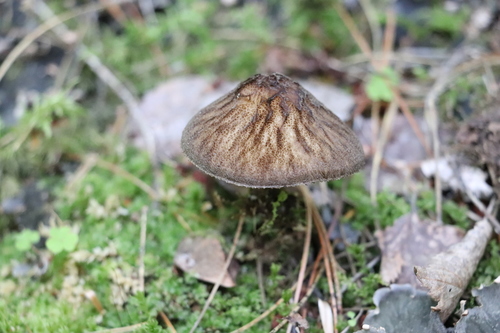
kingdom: Fungi
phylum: Basidiomycota
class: Agaricomycetes
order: Agaricales
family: Pluteaceae
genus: Pluteus
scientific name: Pluteus umbrosus
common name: Velvet shield
